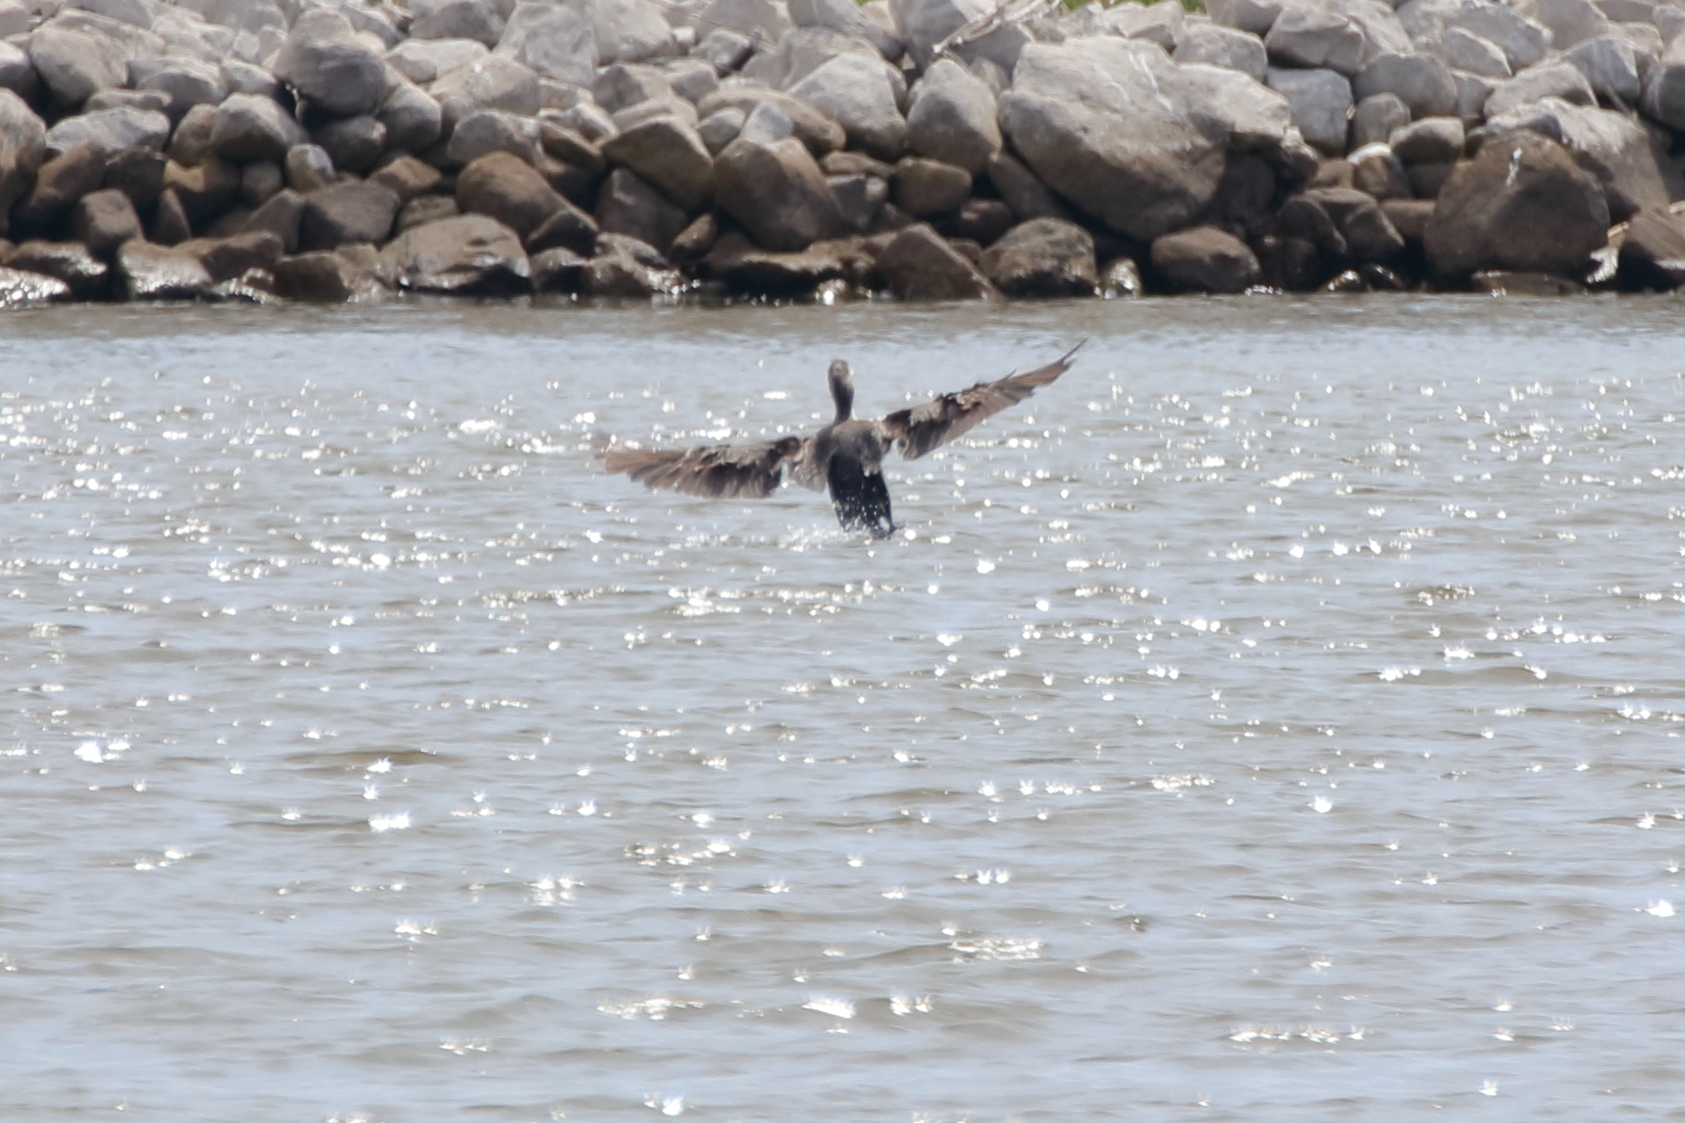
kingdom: Animalia
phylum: Chordata
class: Aves
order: Suliformes
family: Phalacrocoracidae
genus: Phalacrocorax
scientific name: Phalacrocorax auritus
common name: Double-crested cormorant
